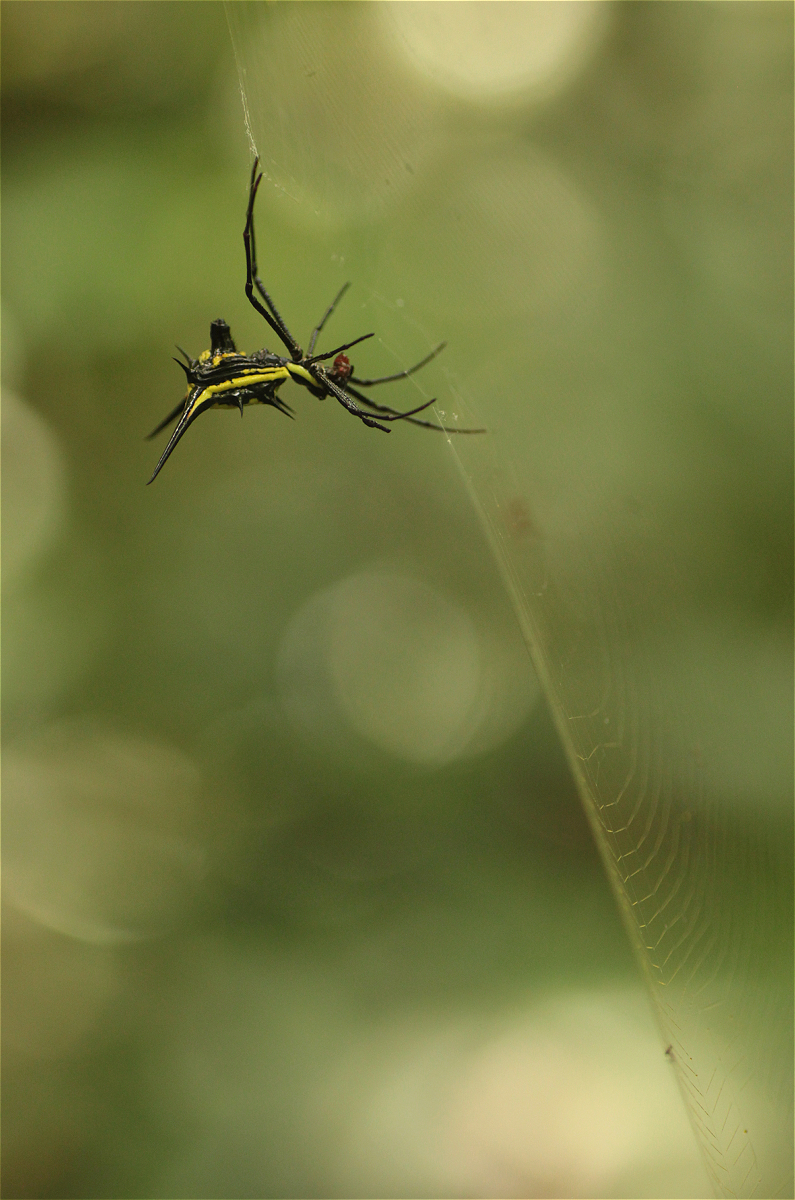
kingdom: Animalia
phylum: Arthropoda
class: Arachnida
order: Araneae
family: Araneidae
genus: Micrathena
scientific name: Micrathena schreibersi
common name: Orb weavers
